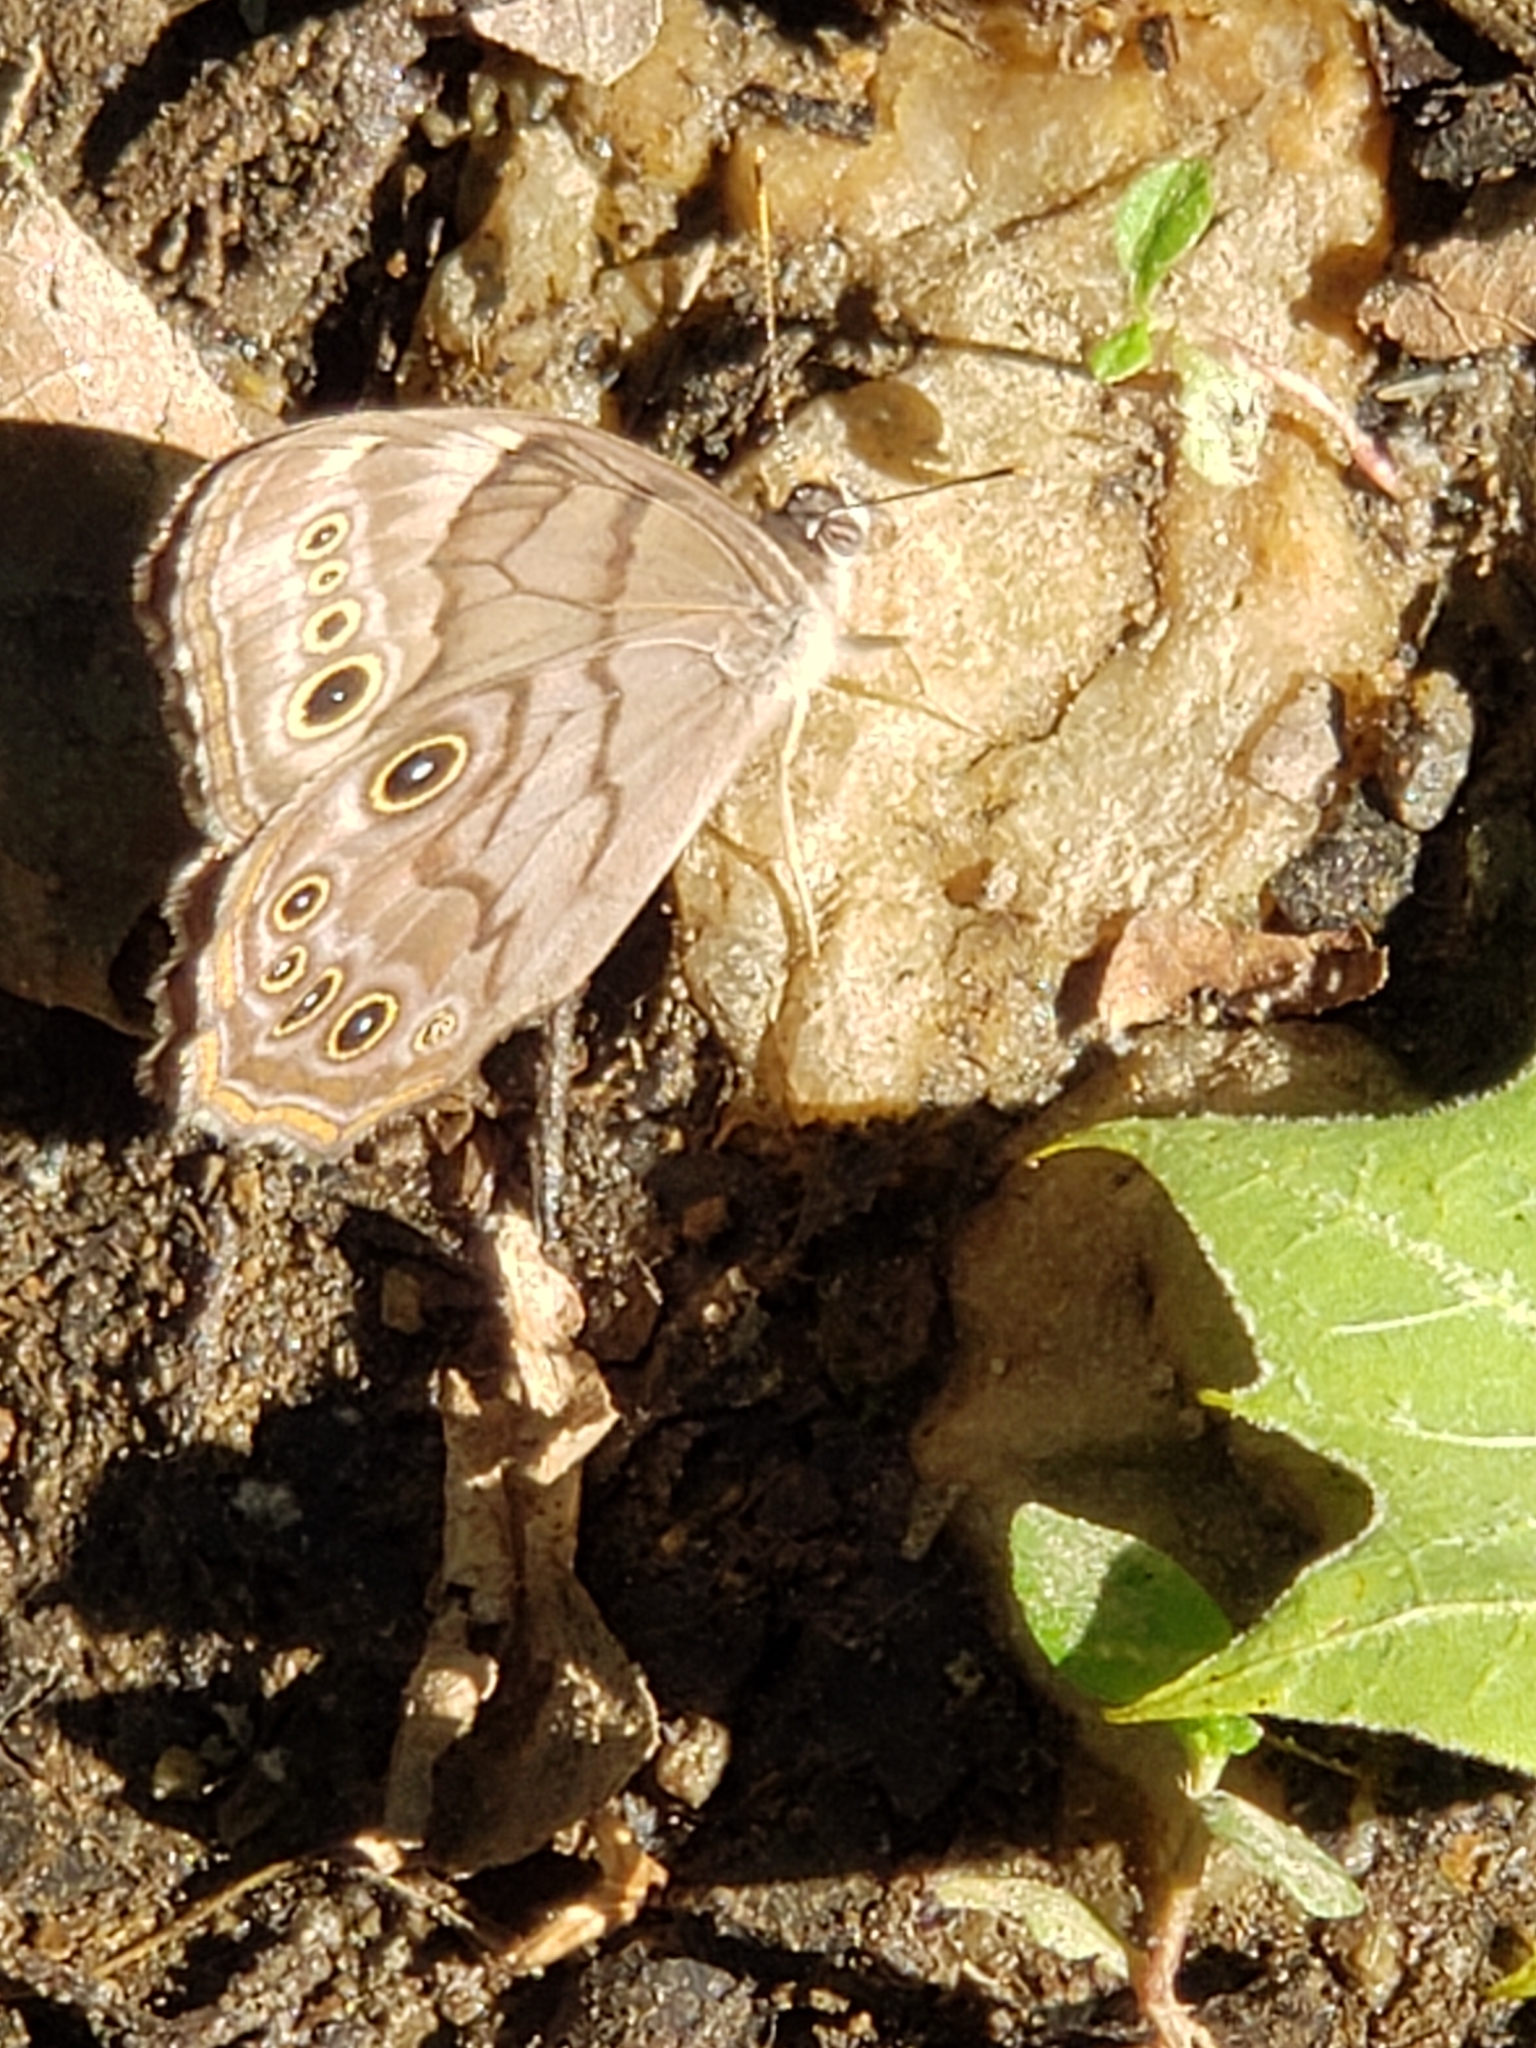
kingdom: Animalia
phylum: Arthropoda
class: Insecta
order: Lepidoptera
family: Nymphalidae
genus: Lethe
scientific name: Lethe anthedon
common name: Northern pearly-eye
